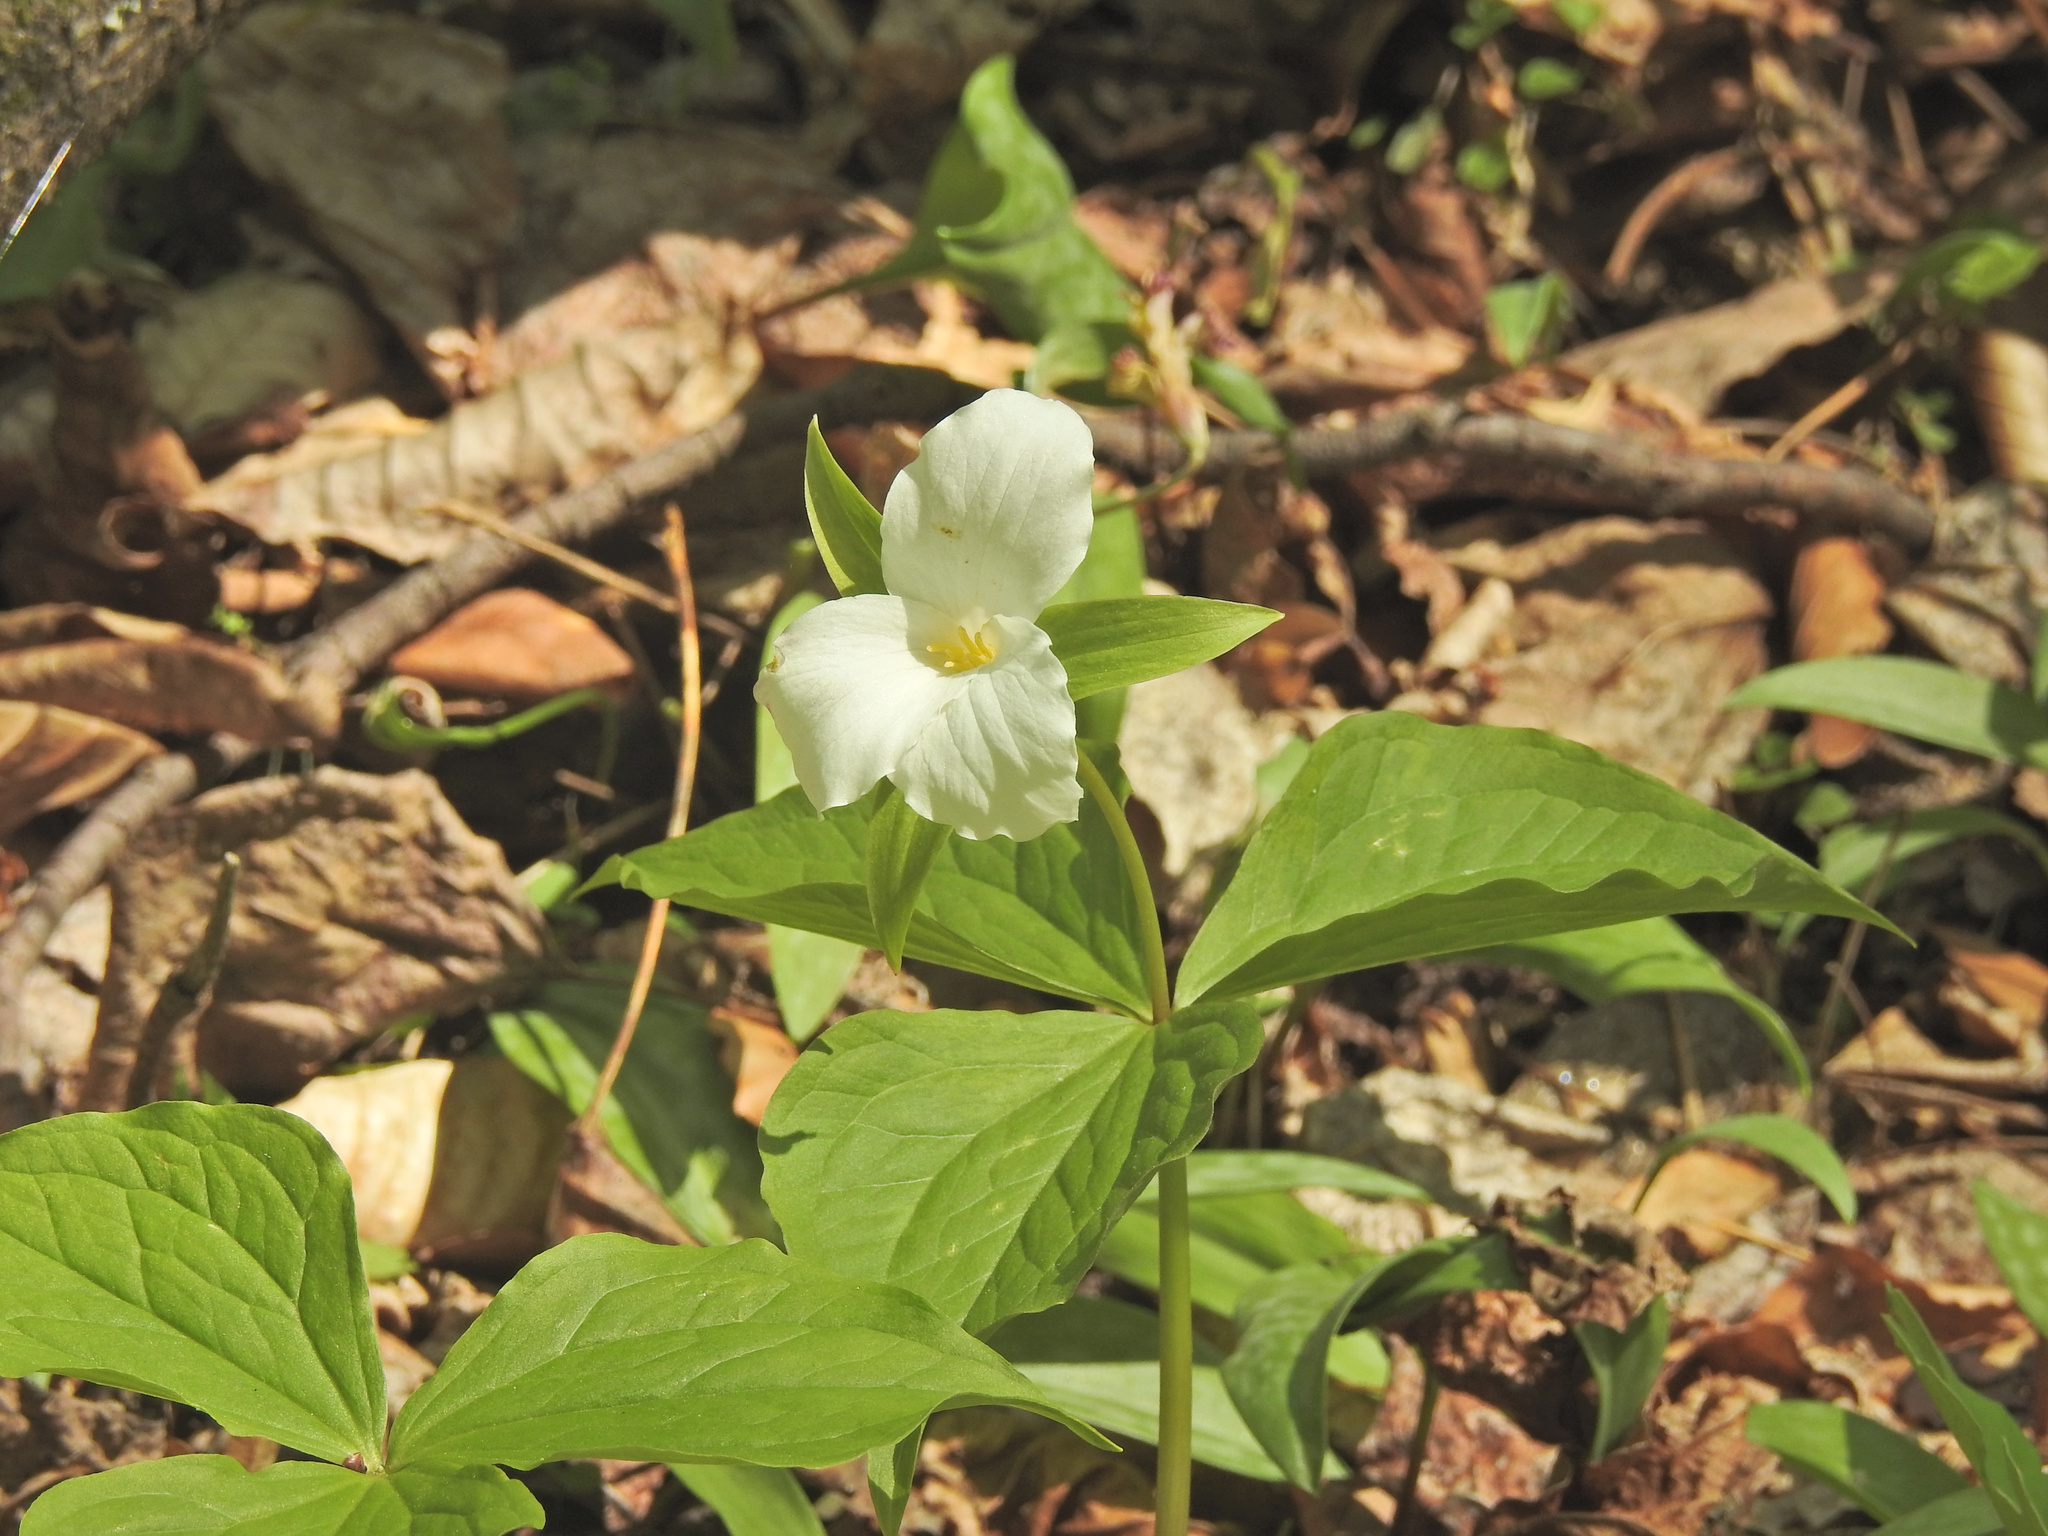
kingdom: Plantae
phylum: Tracheophyta
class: Liliopsida
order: Liliales
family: Melanthiaceae
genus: Trillium
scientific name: Trillium grandiflorum
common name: Great white trillium
